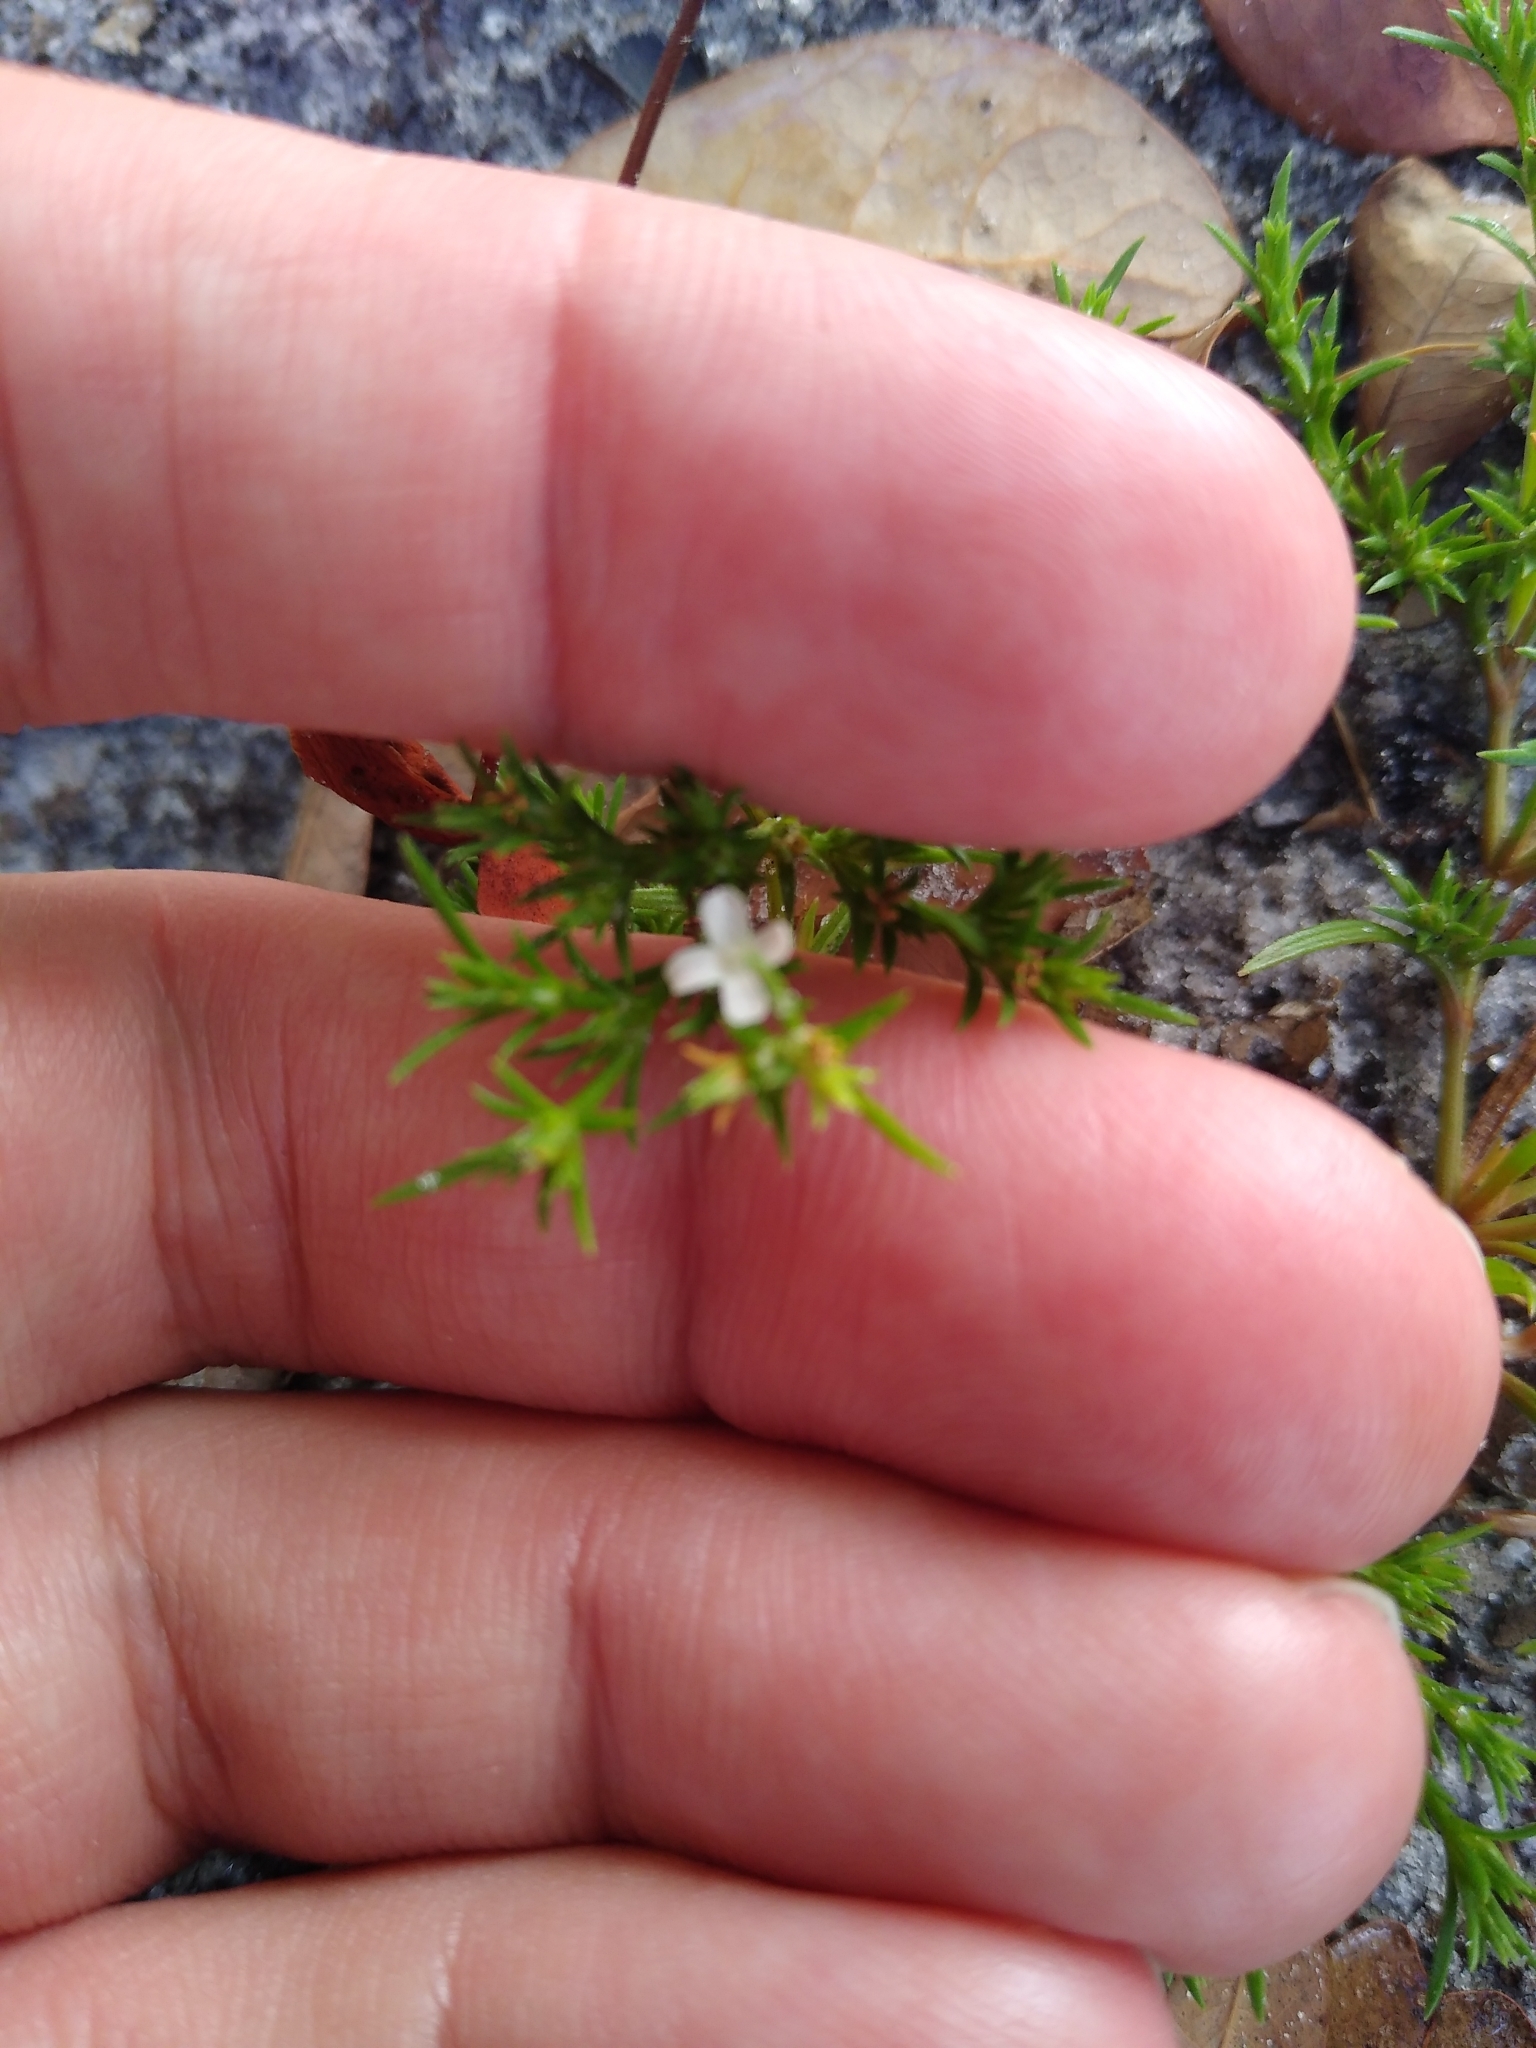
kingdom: Plantae
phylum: Tracheophyta
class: Magnoliopsida
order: Lamiales
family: Tetrachondraceae
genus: Polypremum
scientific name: Polypremum procumbens
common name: Juniper-leaf
